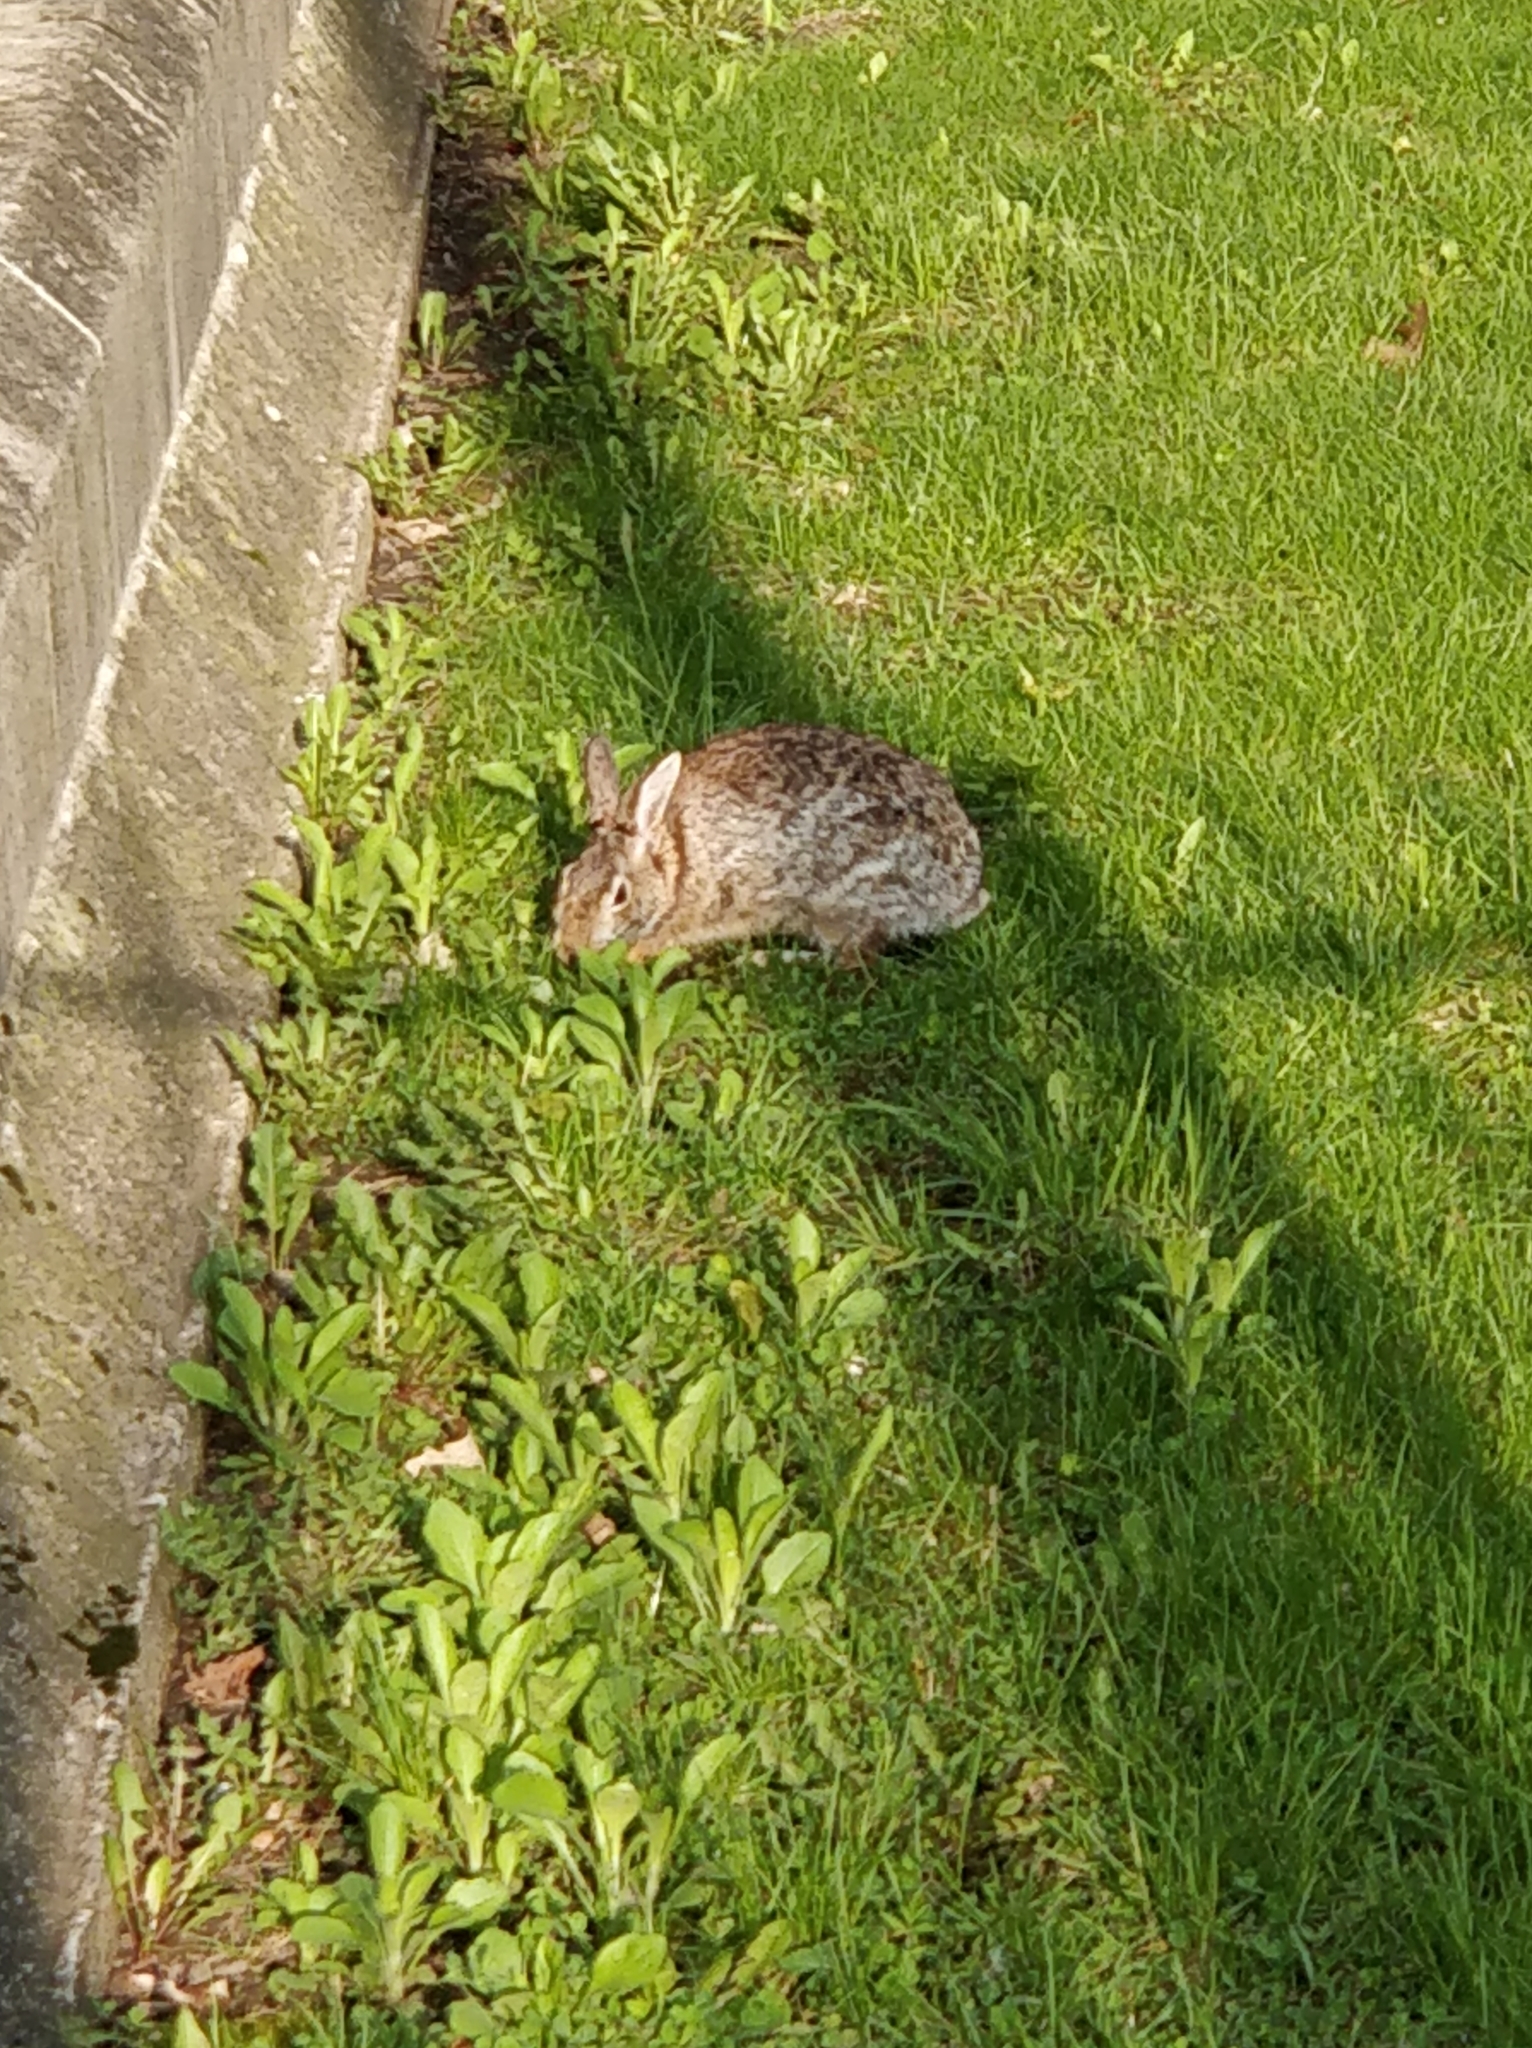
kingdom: Animalia
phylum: Chordata
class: Mammalia
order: Lagomorpha
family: Leporidae
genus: Sylvilagus
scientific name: Sylvilagus floridanus
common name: Eastern cottontail
